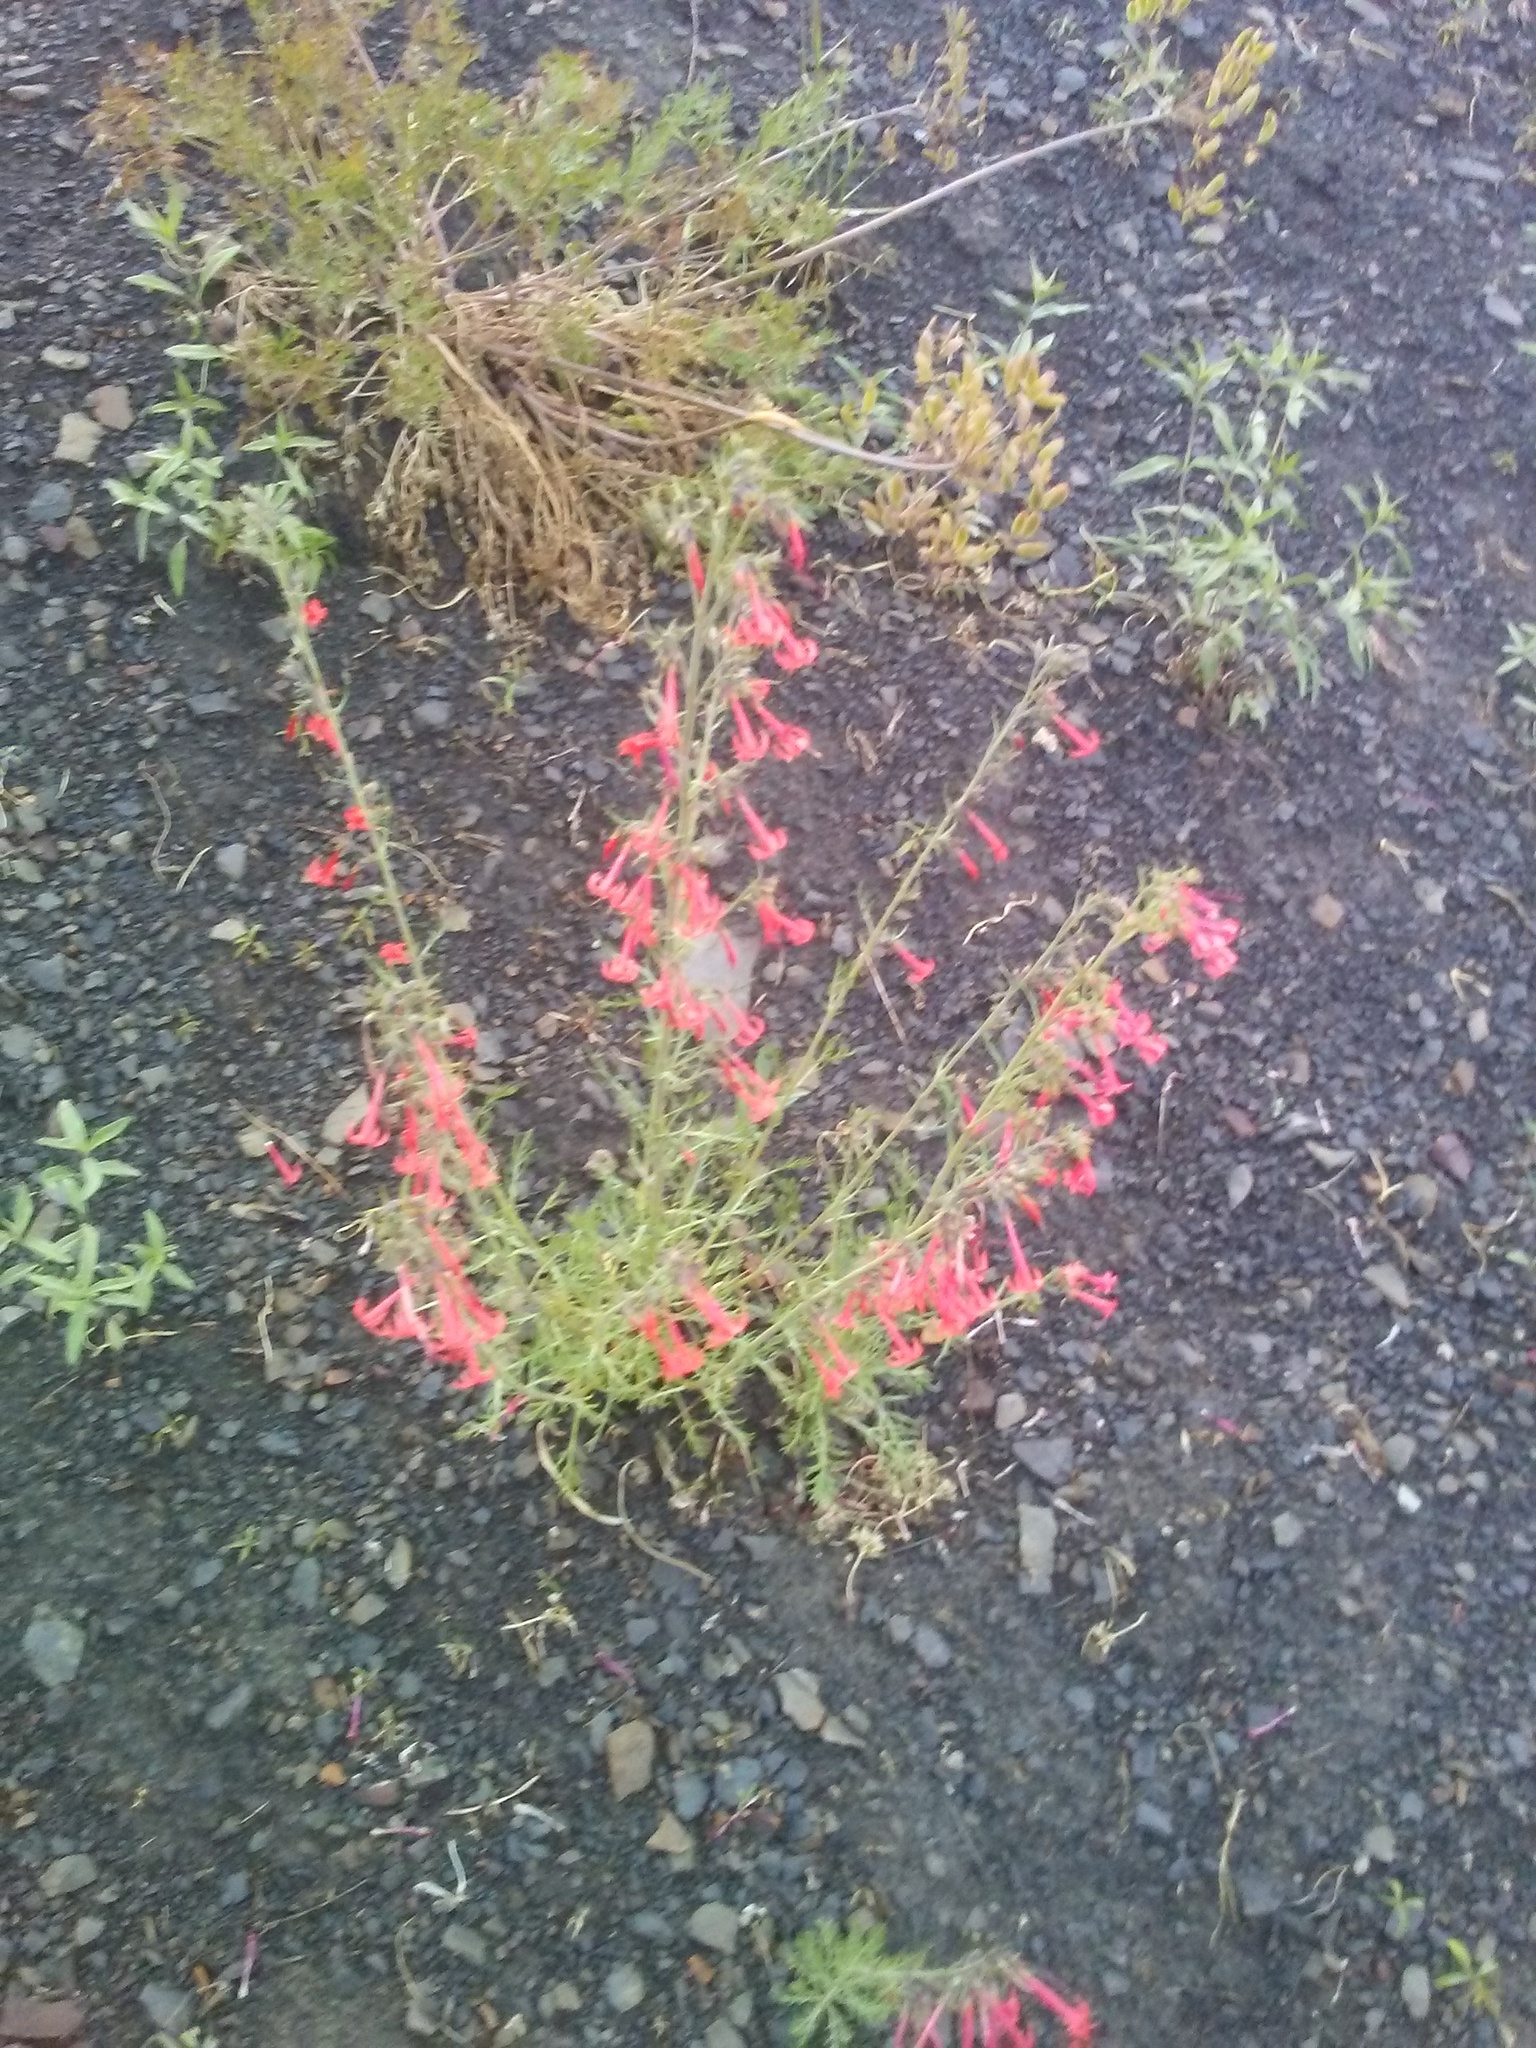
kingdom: Plantae
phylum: Tracheophyta
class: Magnoliopsida
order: Ericales
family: Polemoniaceae
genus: Ipomopsis
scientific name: Ipomopsis aggregata
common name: Scarlet gilia
